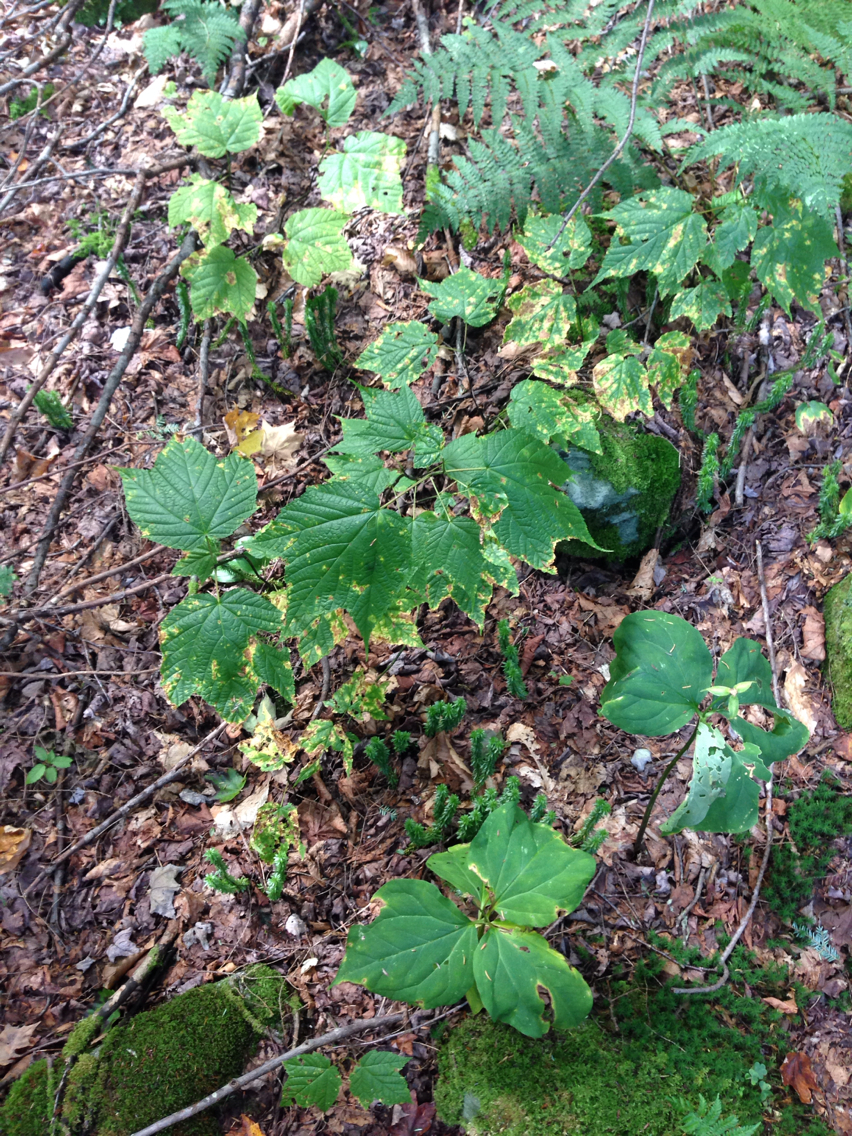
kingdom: Plantae
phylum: Tracheophyta
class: Magnoliopsida
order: Sapindales
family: Sapindaceae
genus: Acer
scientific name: Acer pensylvanicum
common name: Moosewood
